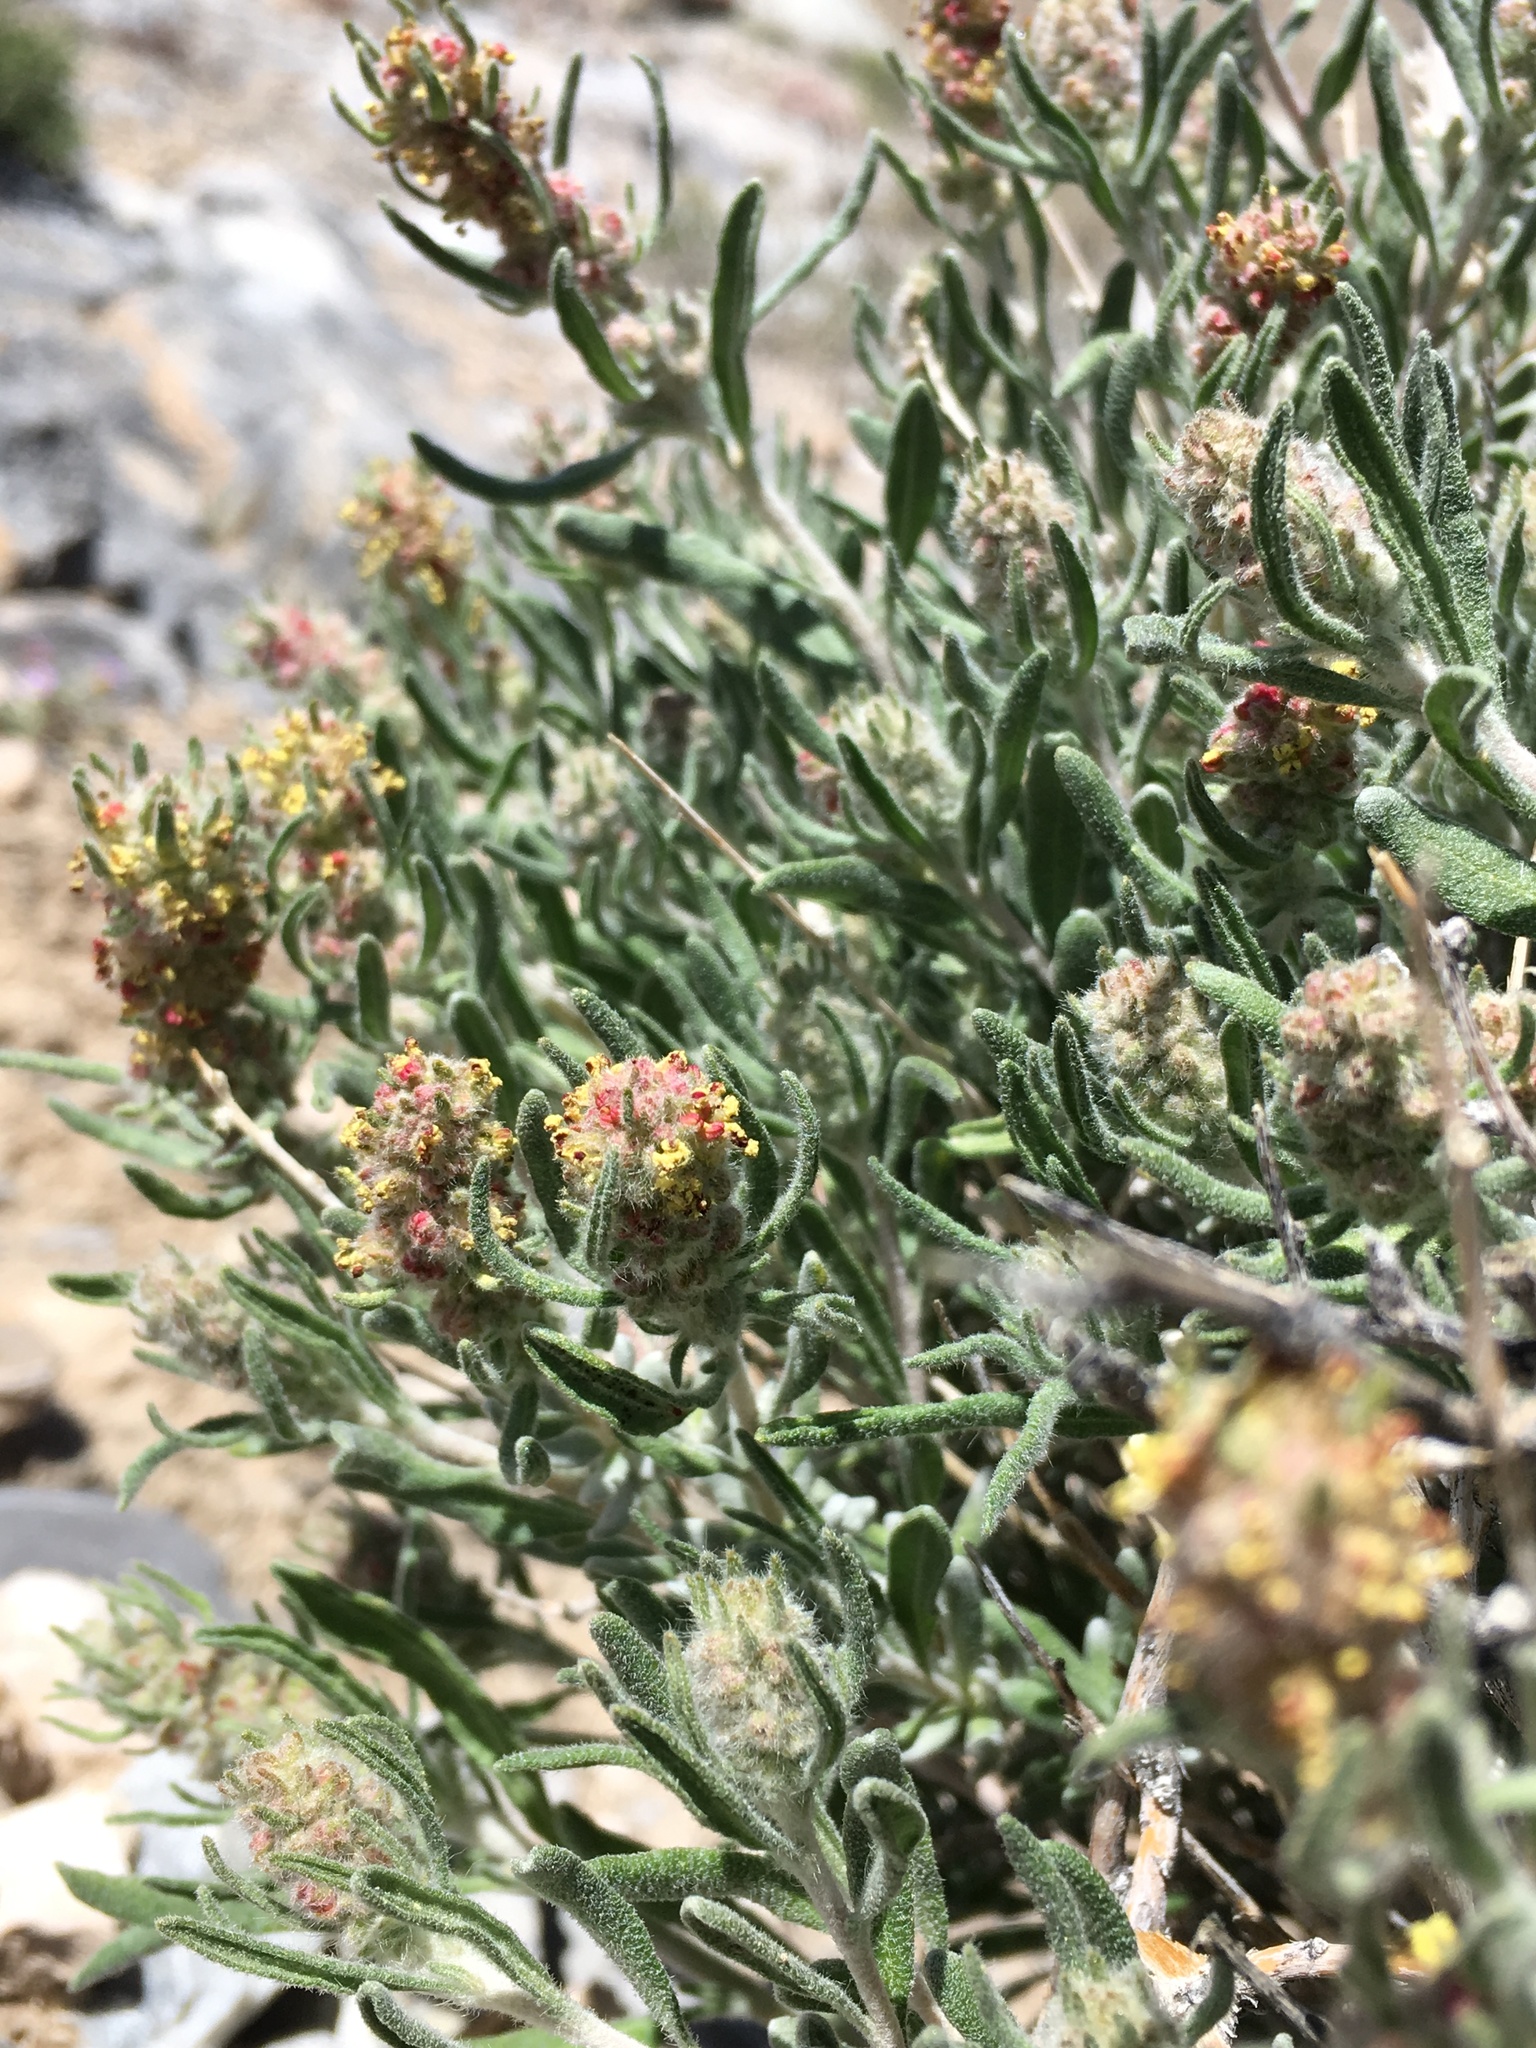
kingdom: Plantae
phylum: Tracheophyta
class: Magnoliopsida
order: Caryophyllales
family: Amaranthaceae
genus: Krascheninnikovia
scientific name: Krascheninnikovia lanata
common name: Winterfat
